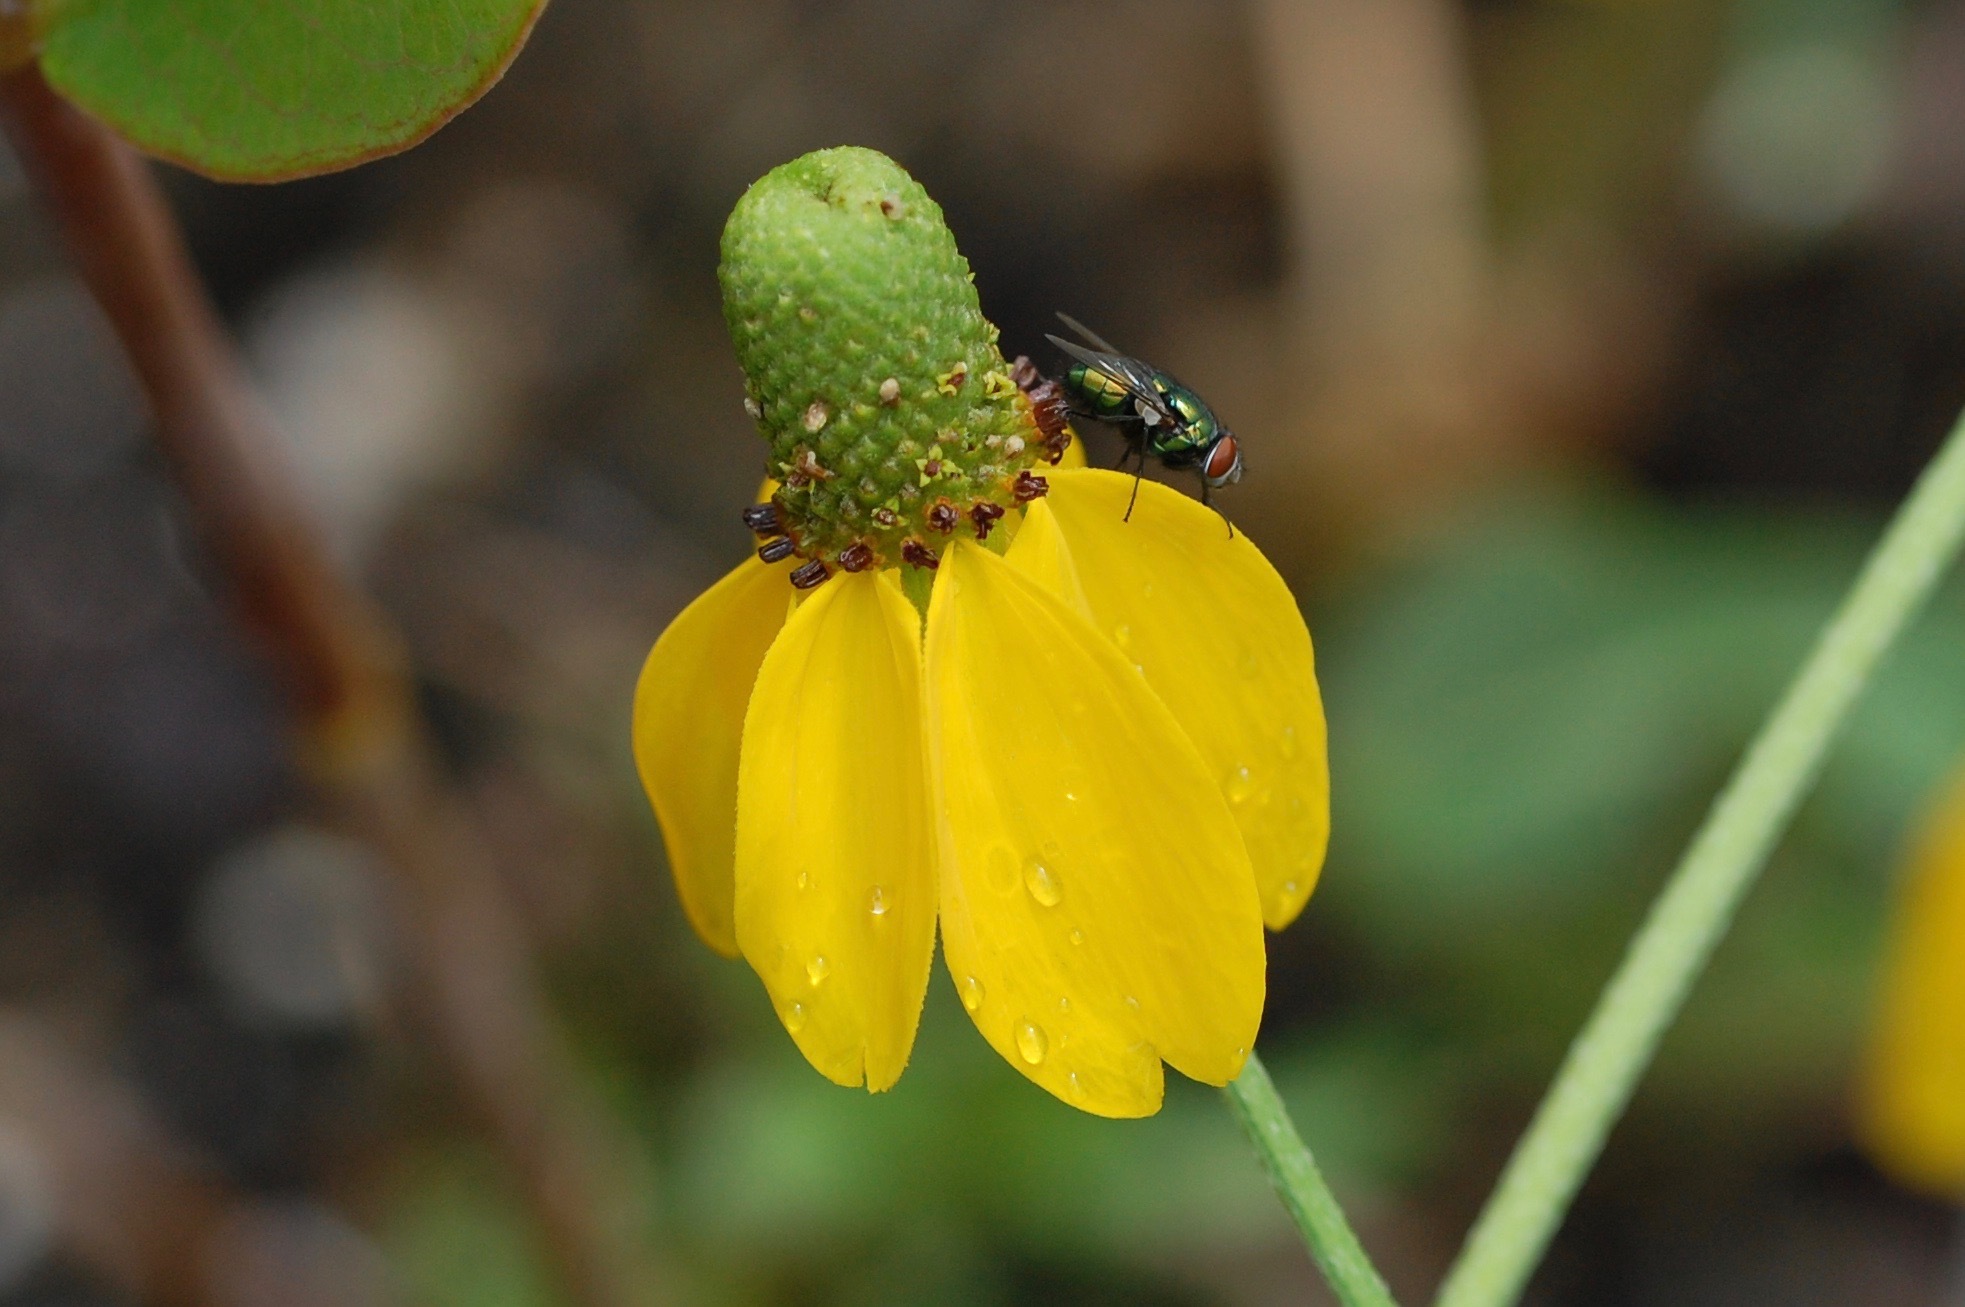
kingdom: Animalia
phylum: Arthropoda
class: Insecta
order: Diptera
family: Calliphoridae
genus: Lucilia
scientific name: Lucilia
